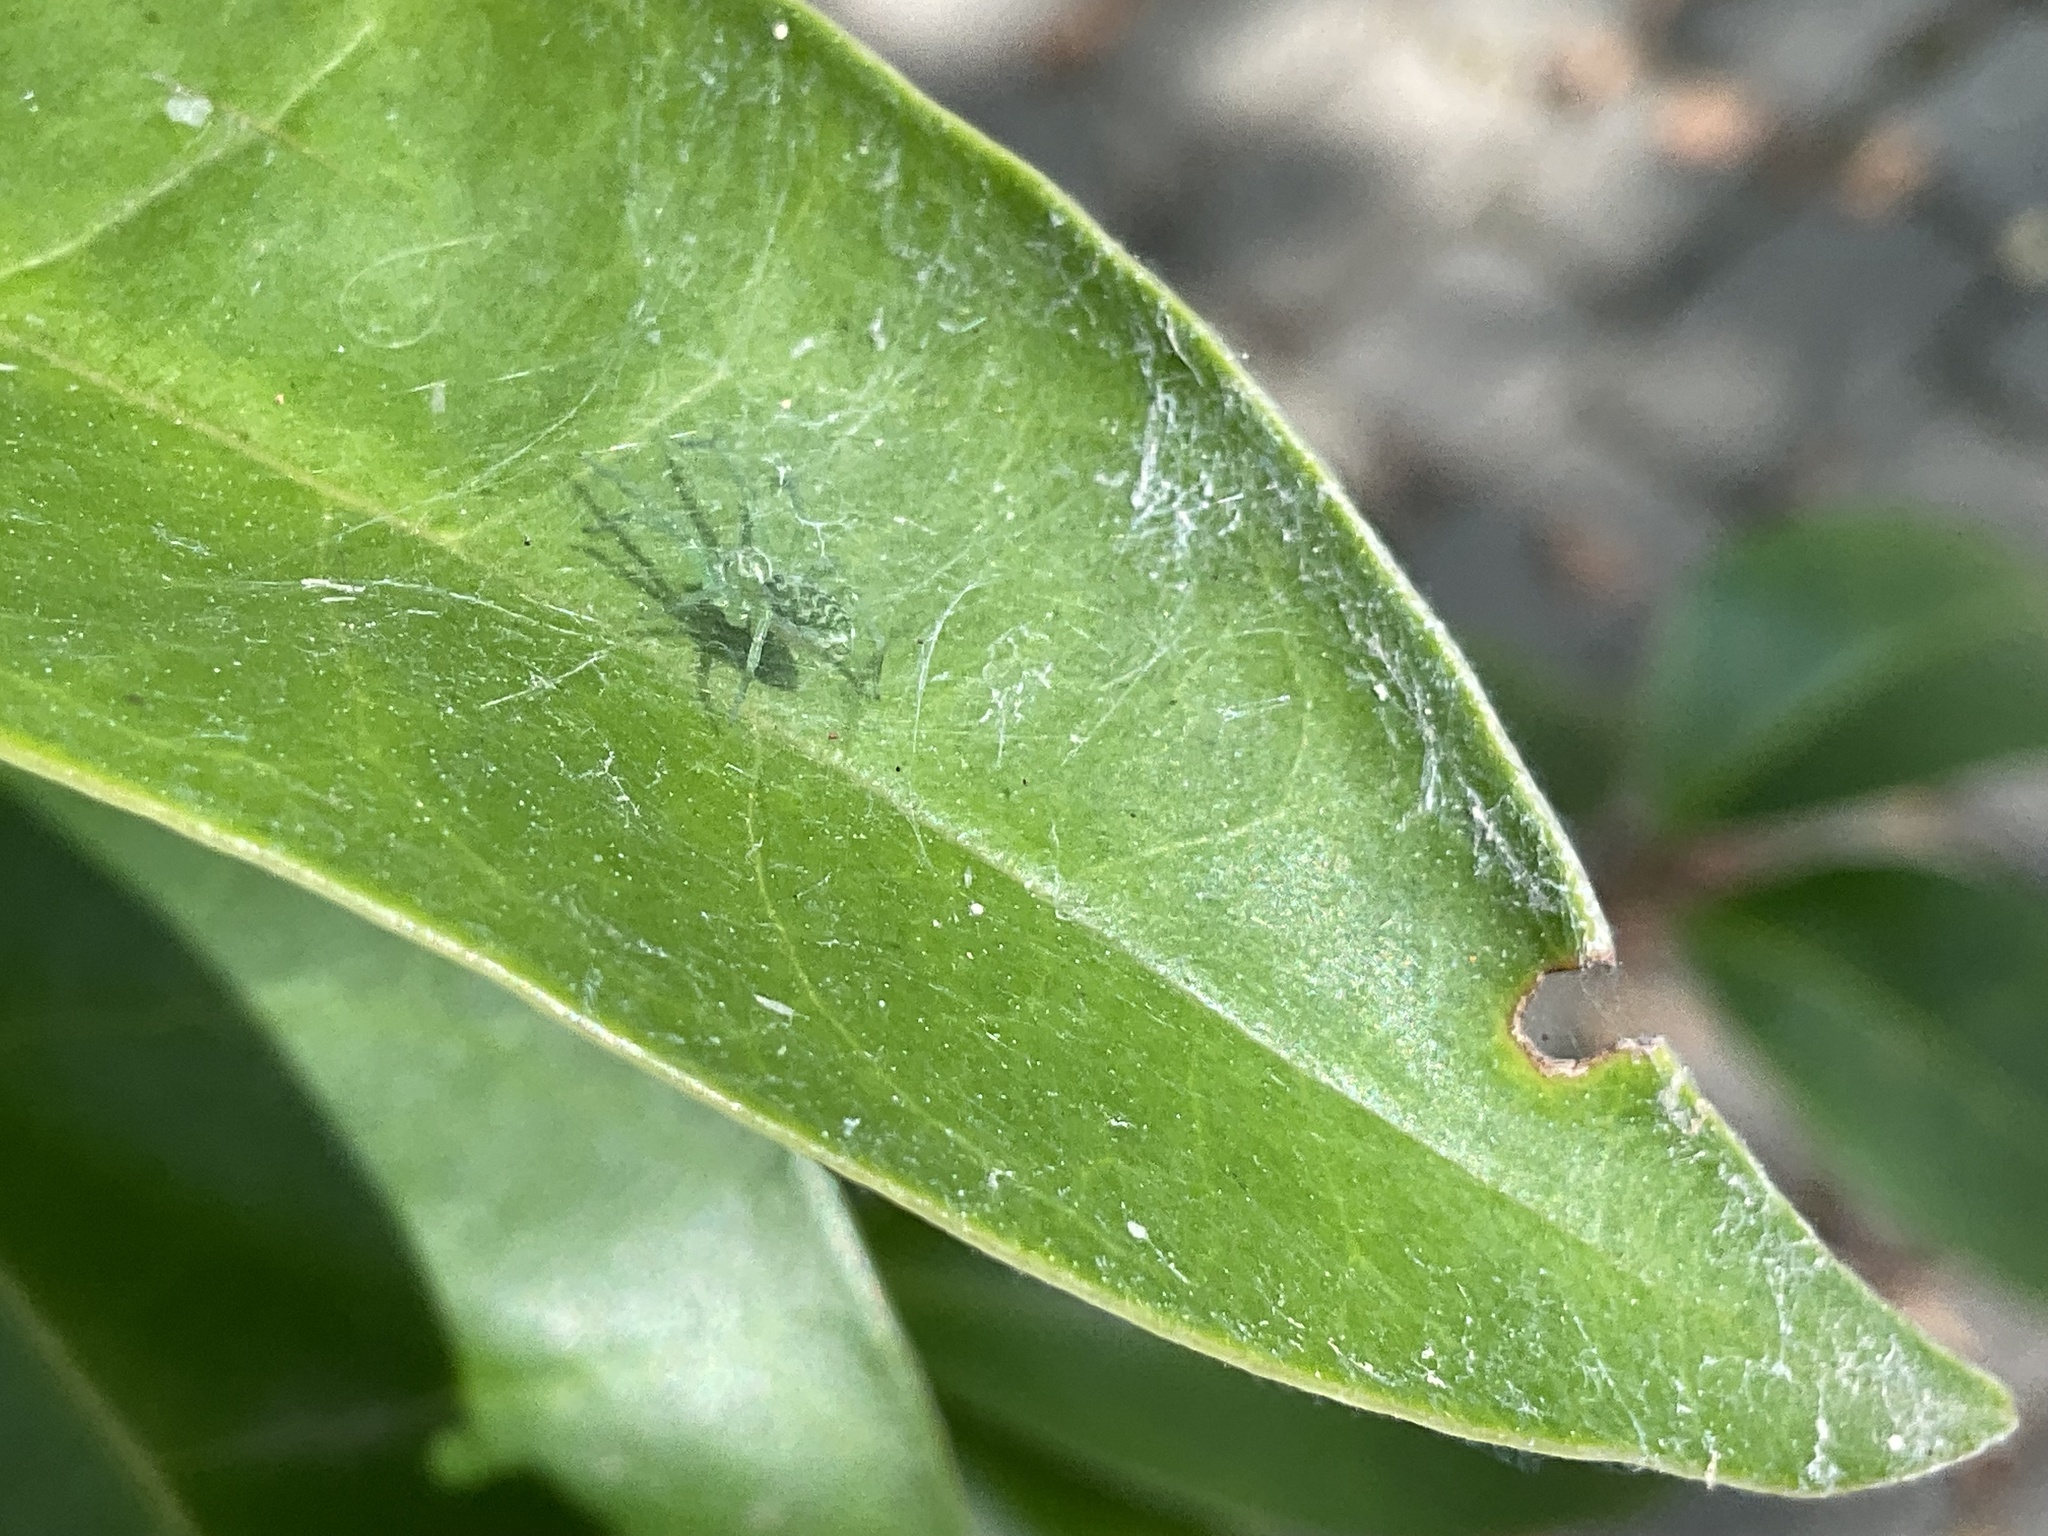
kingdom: Animalia
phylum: Arthropoda
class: Arachnida
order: Araneae
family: Dictynidae
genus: Nigma
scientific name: Nigma walckenaeri
